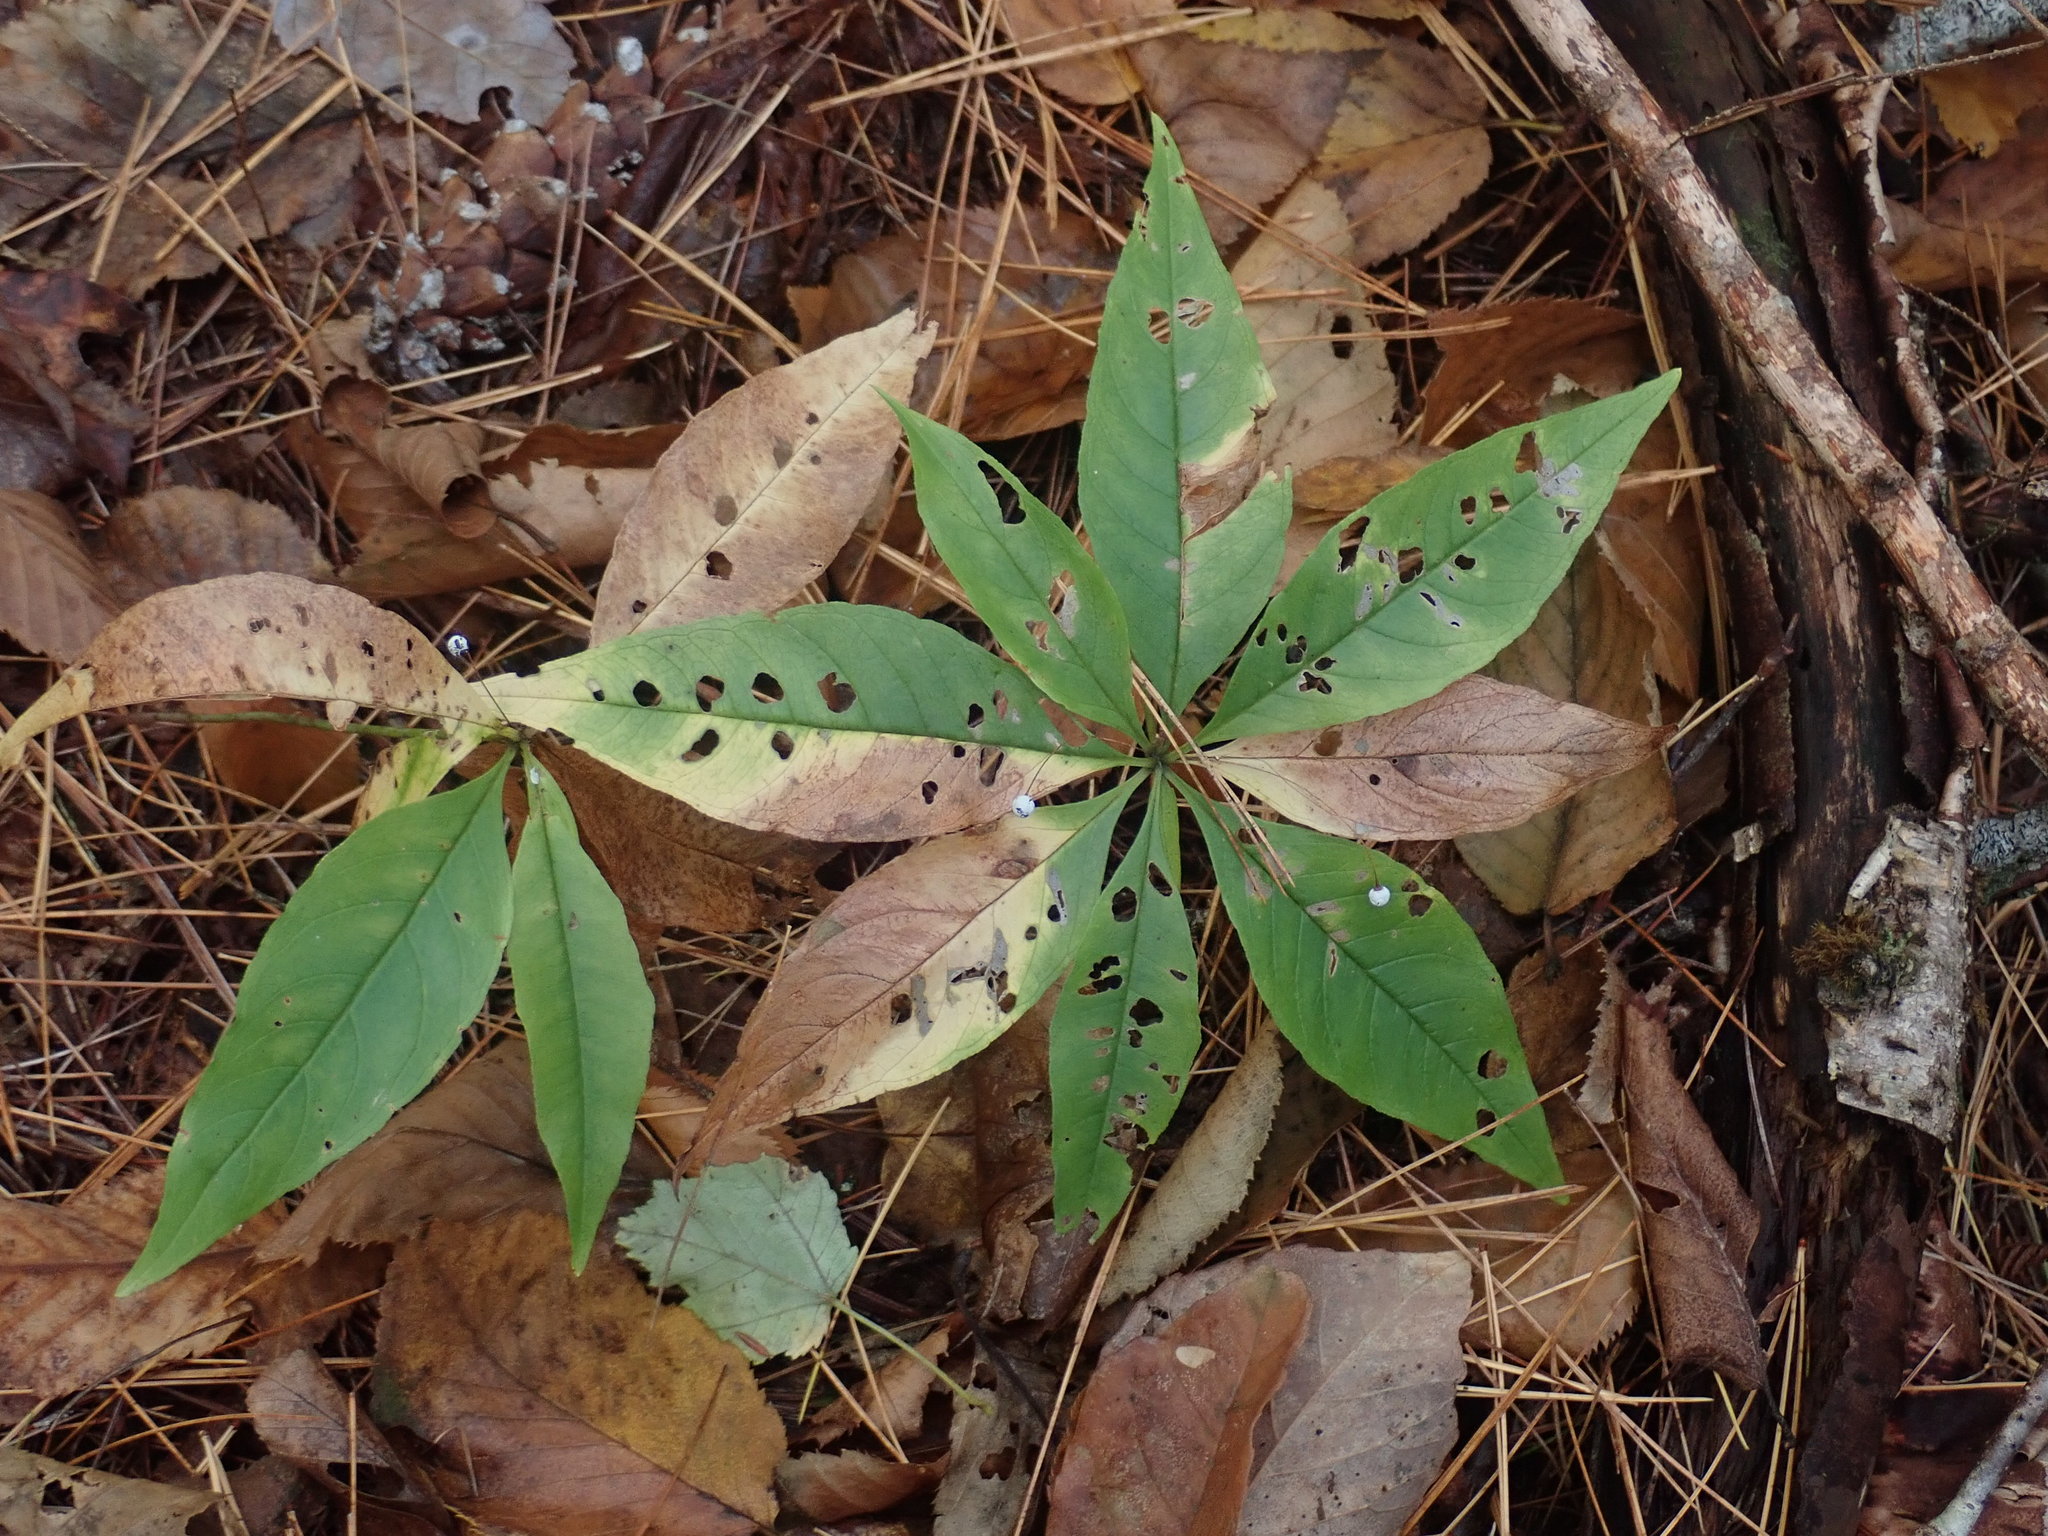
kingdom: Plantae
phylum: Tracheophyta
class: Magnoliopsida
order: Ericales
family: Primulaceae
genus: Lysimachia
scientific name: Lysimachia borealis
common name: American starflower
